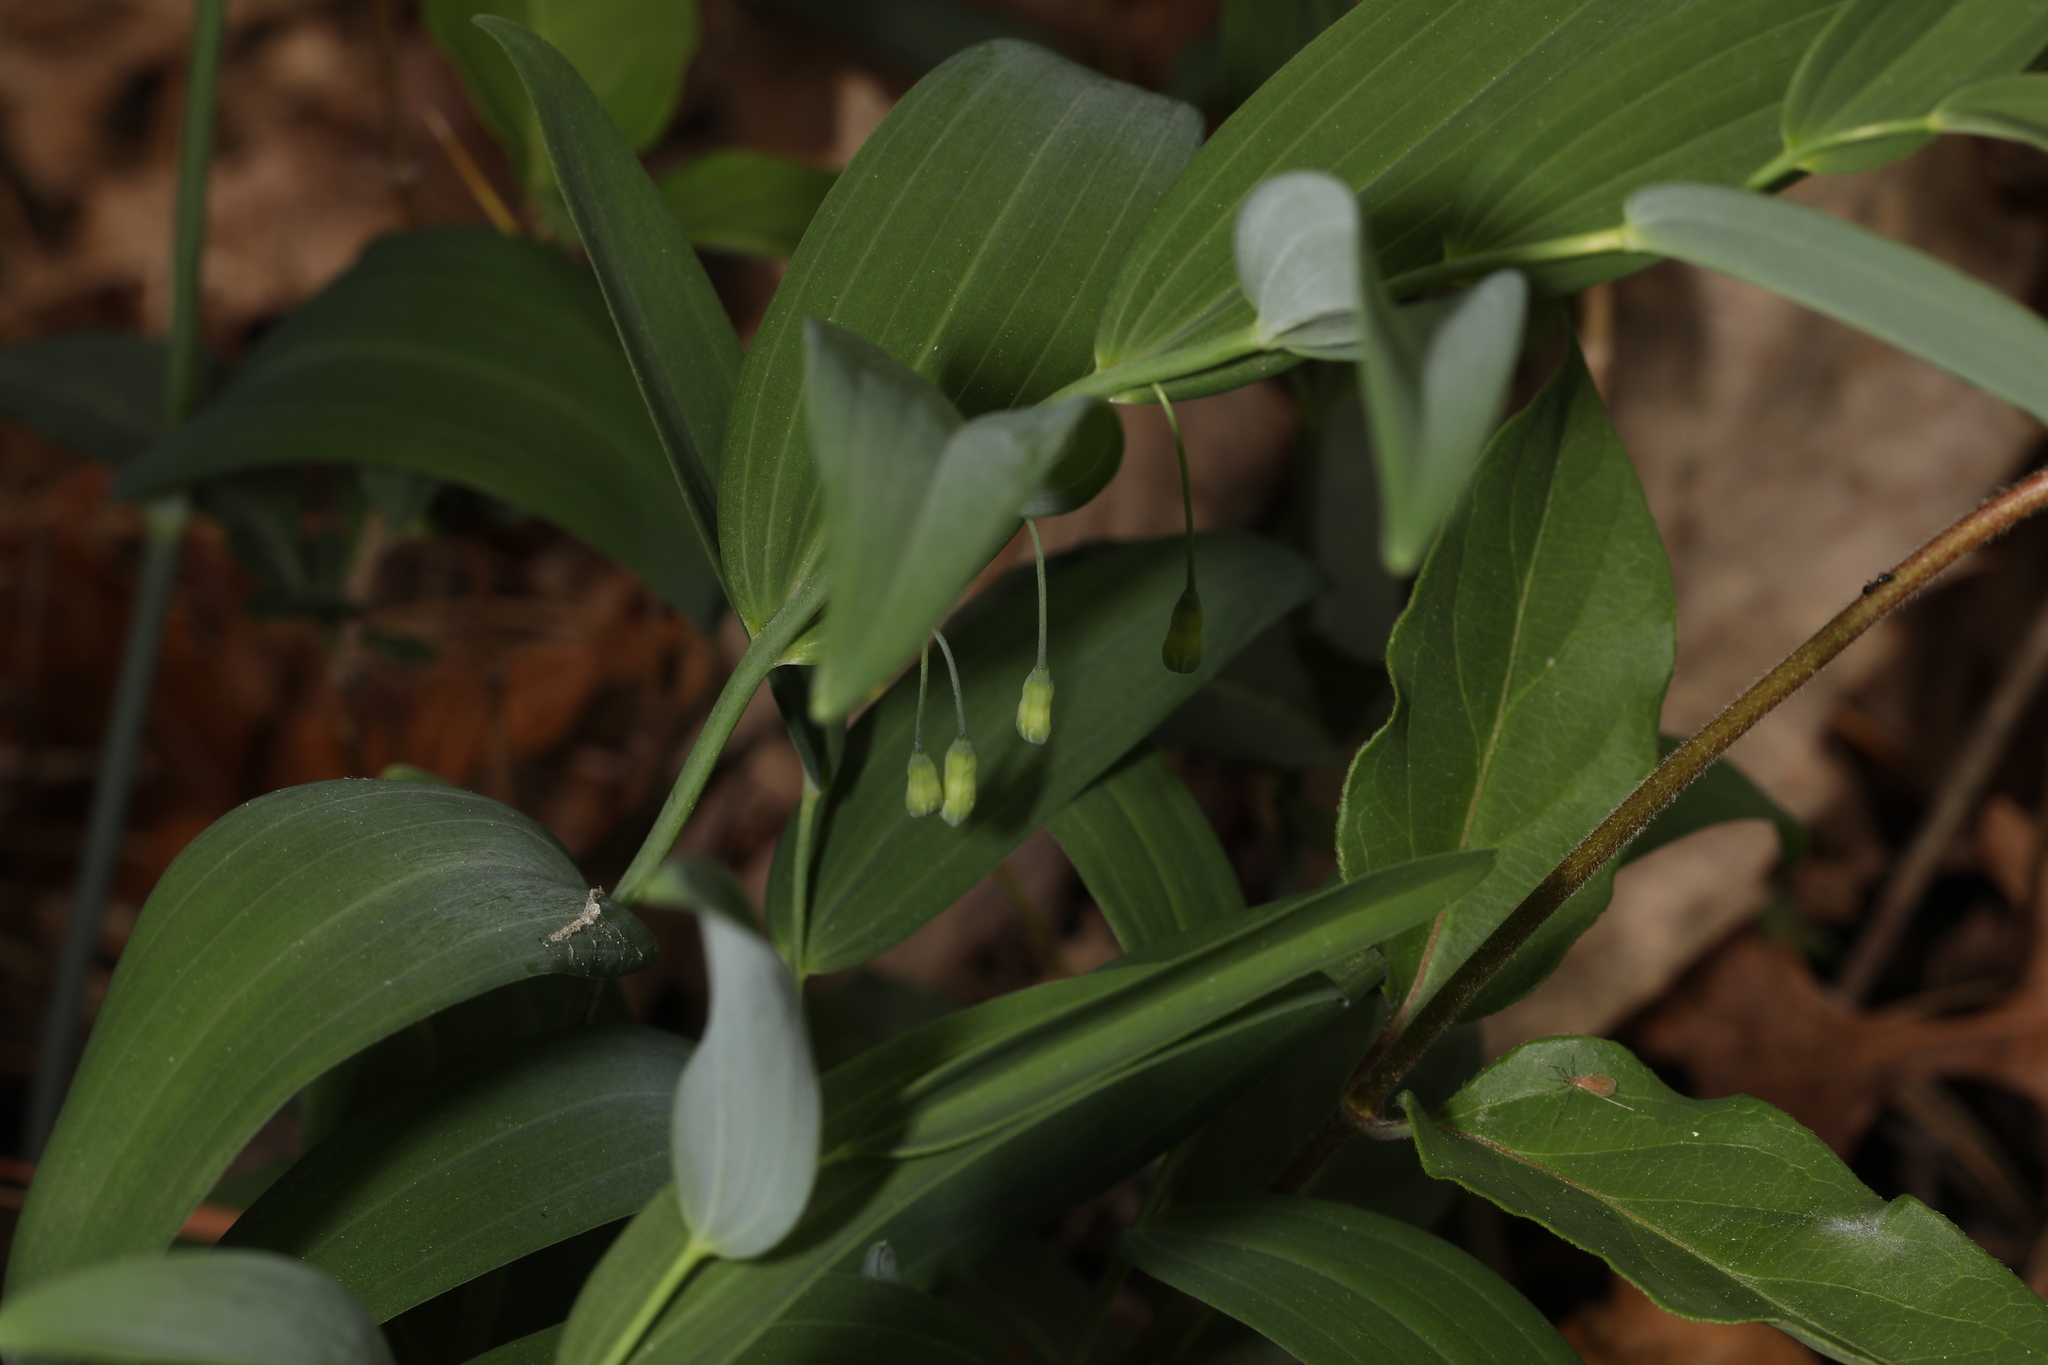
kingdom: Plantae
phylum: Tracheophyta
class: Liliopsida
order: Asparagales
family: Asparagaceae
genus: Polygonatum
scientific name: Polygonatum biflorum
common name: American solomon's-seal
